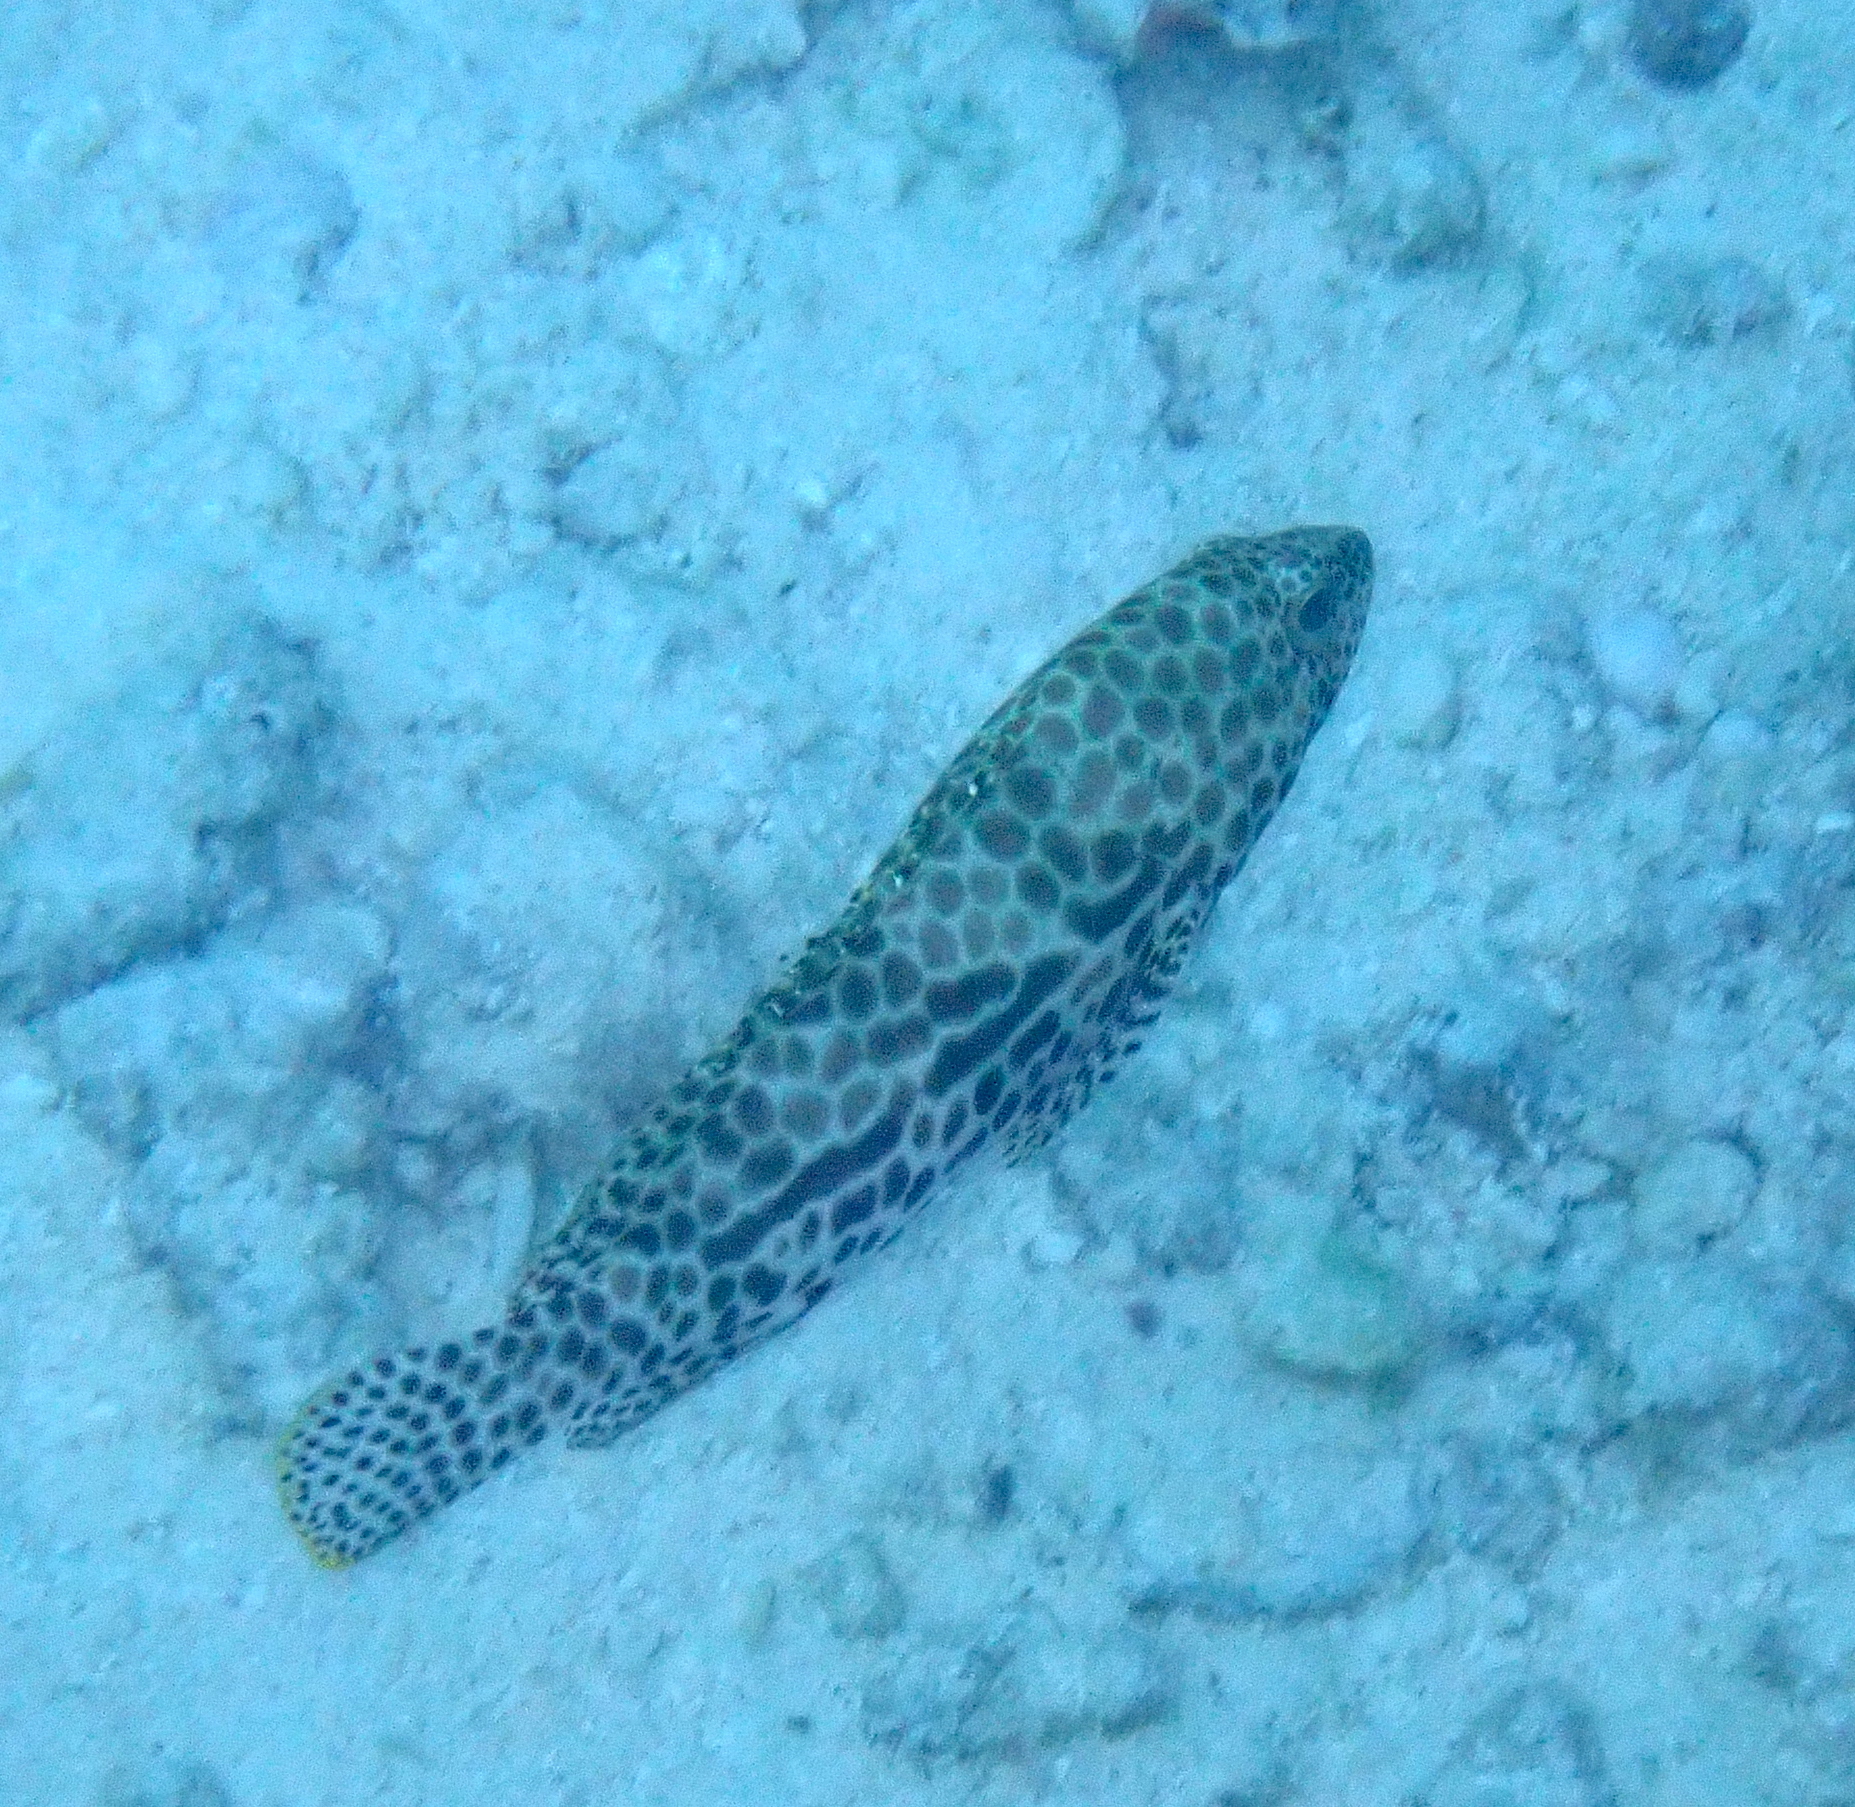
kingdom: Animalia
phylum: Chordata
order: Perciformes
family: Serranidae
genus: Epinephelus
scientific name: Epinephelus merra
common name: Honeycomb grouper
